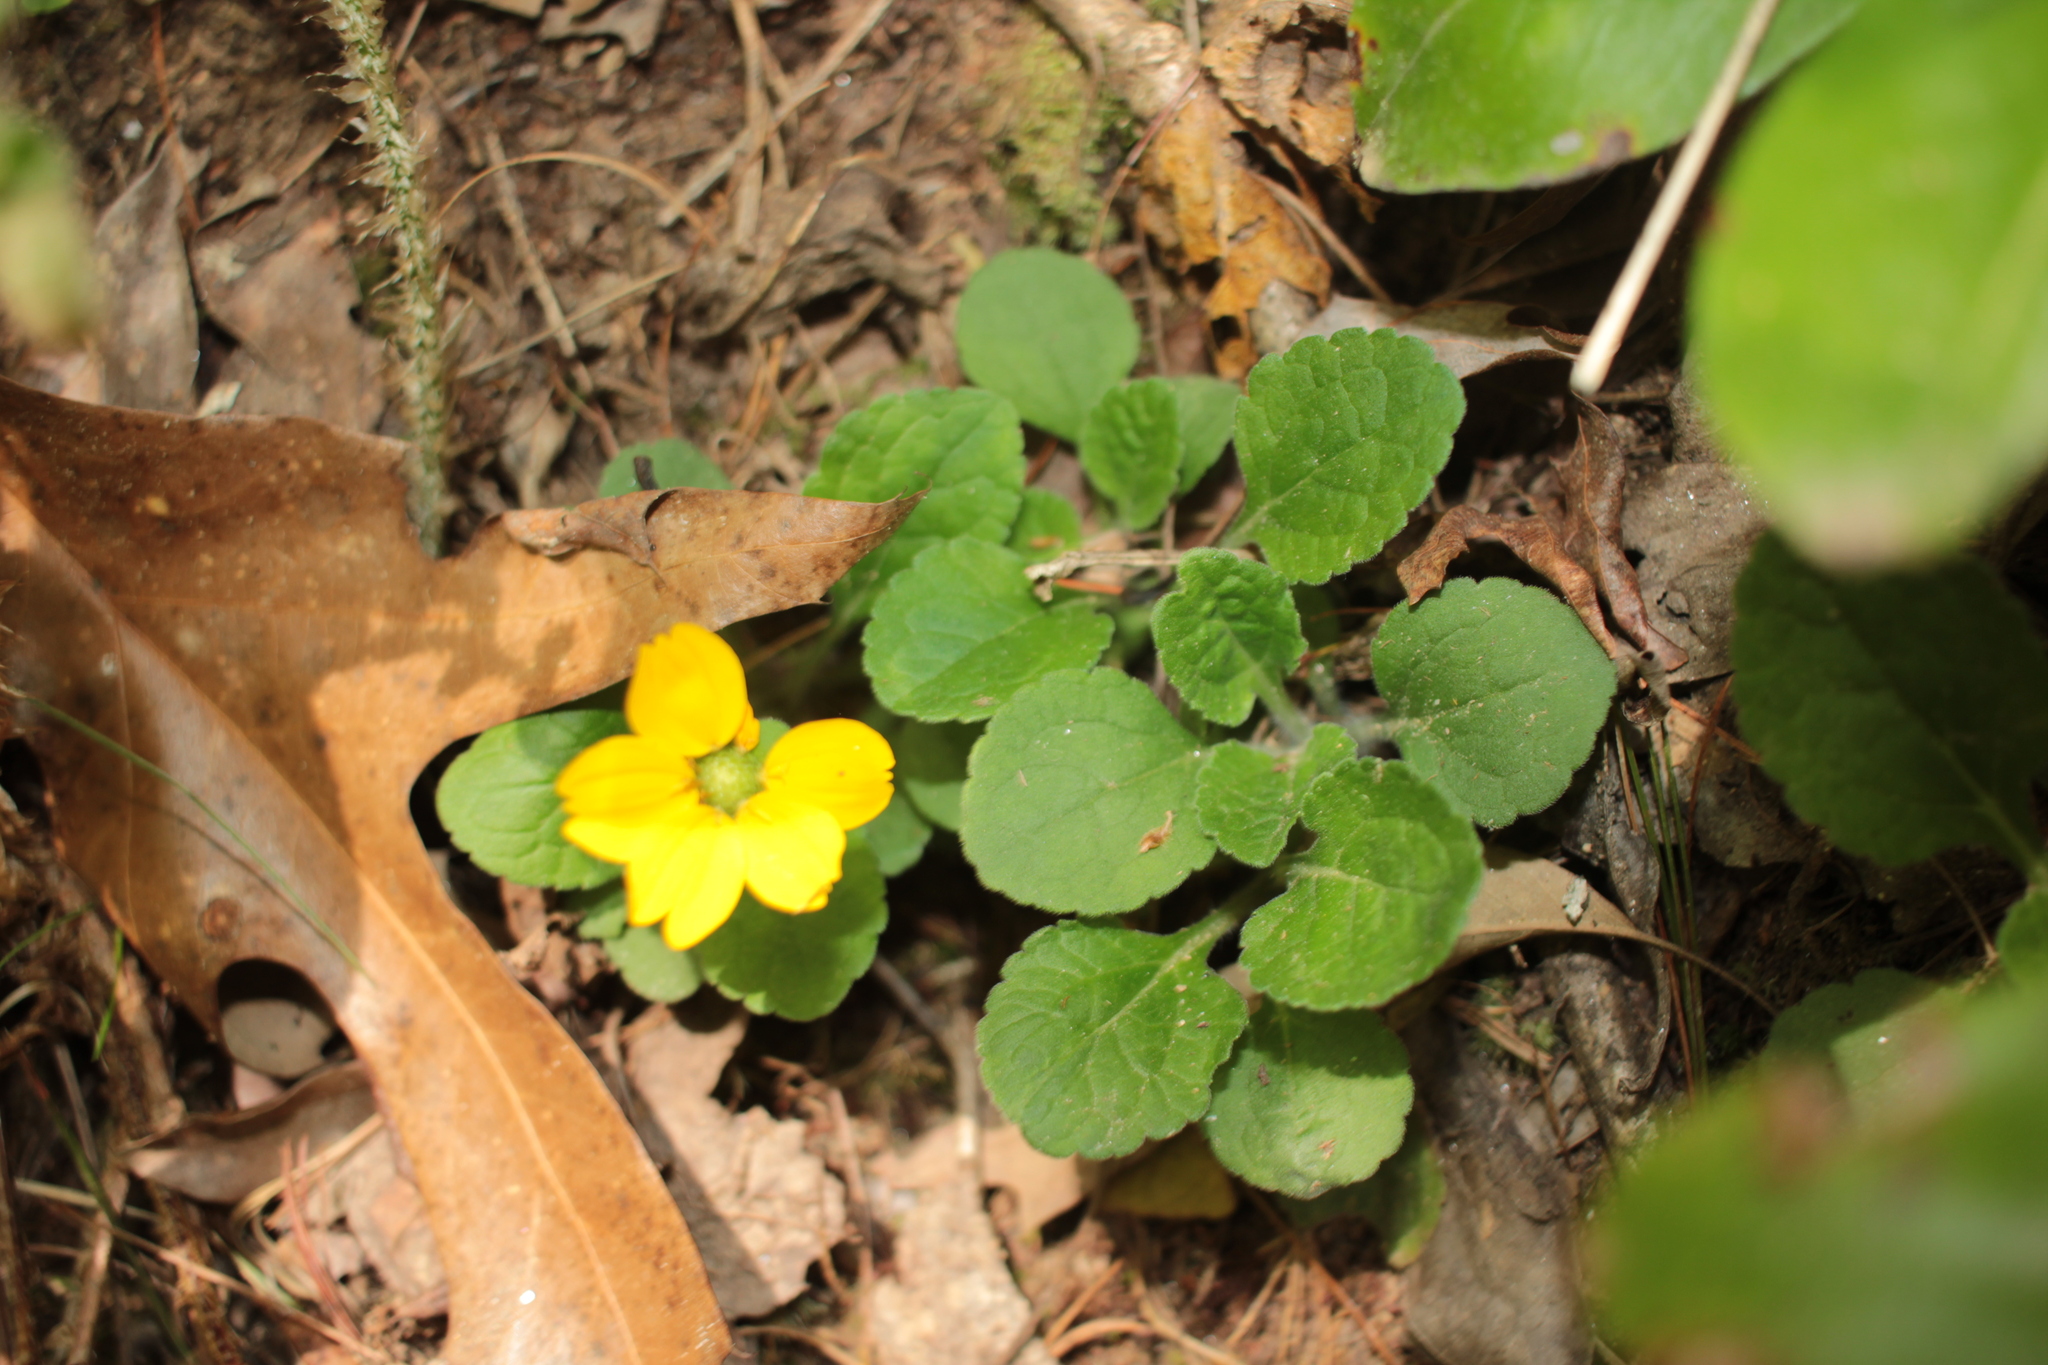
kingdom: Plantae
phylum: Tracheophyta
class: Magnoliopsida
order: Asterales
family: Asteraceae
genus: Chrysogonum
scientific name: Chrysogonum virginianum
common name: Golden-knee
